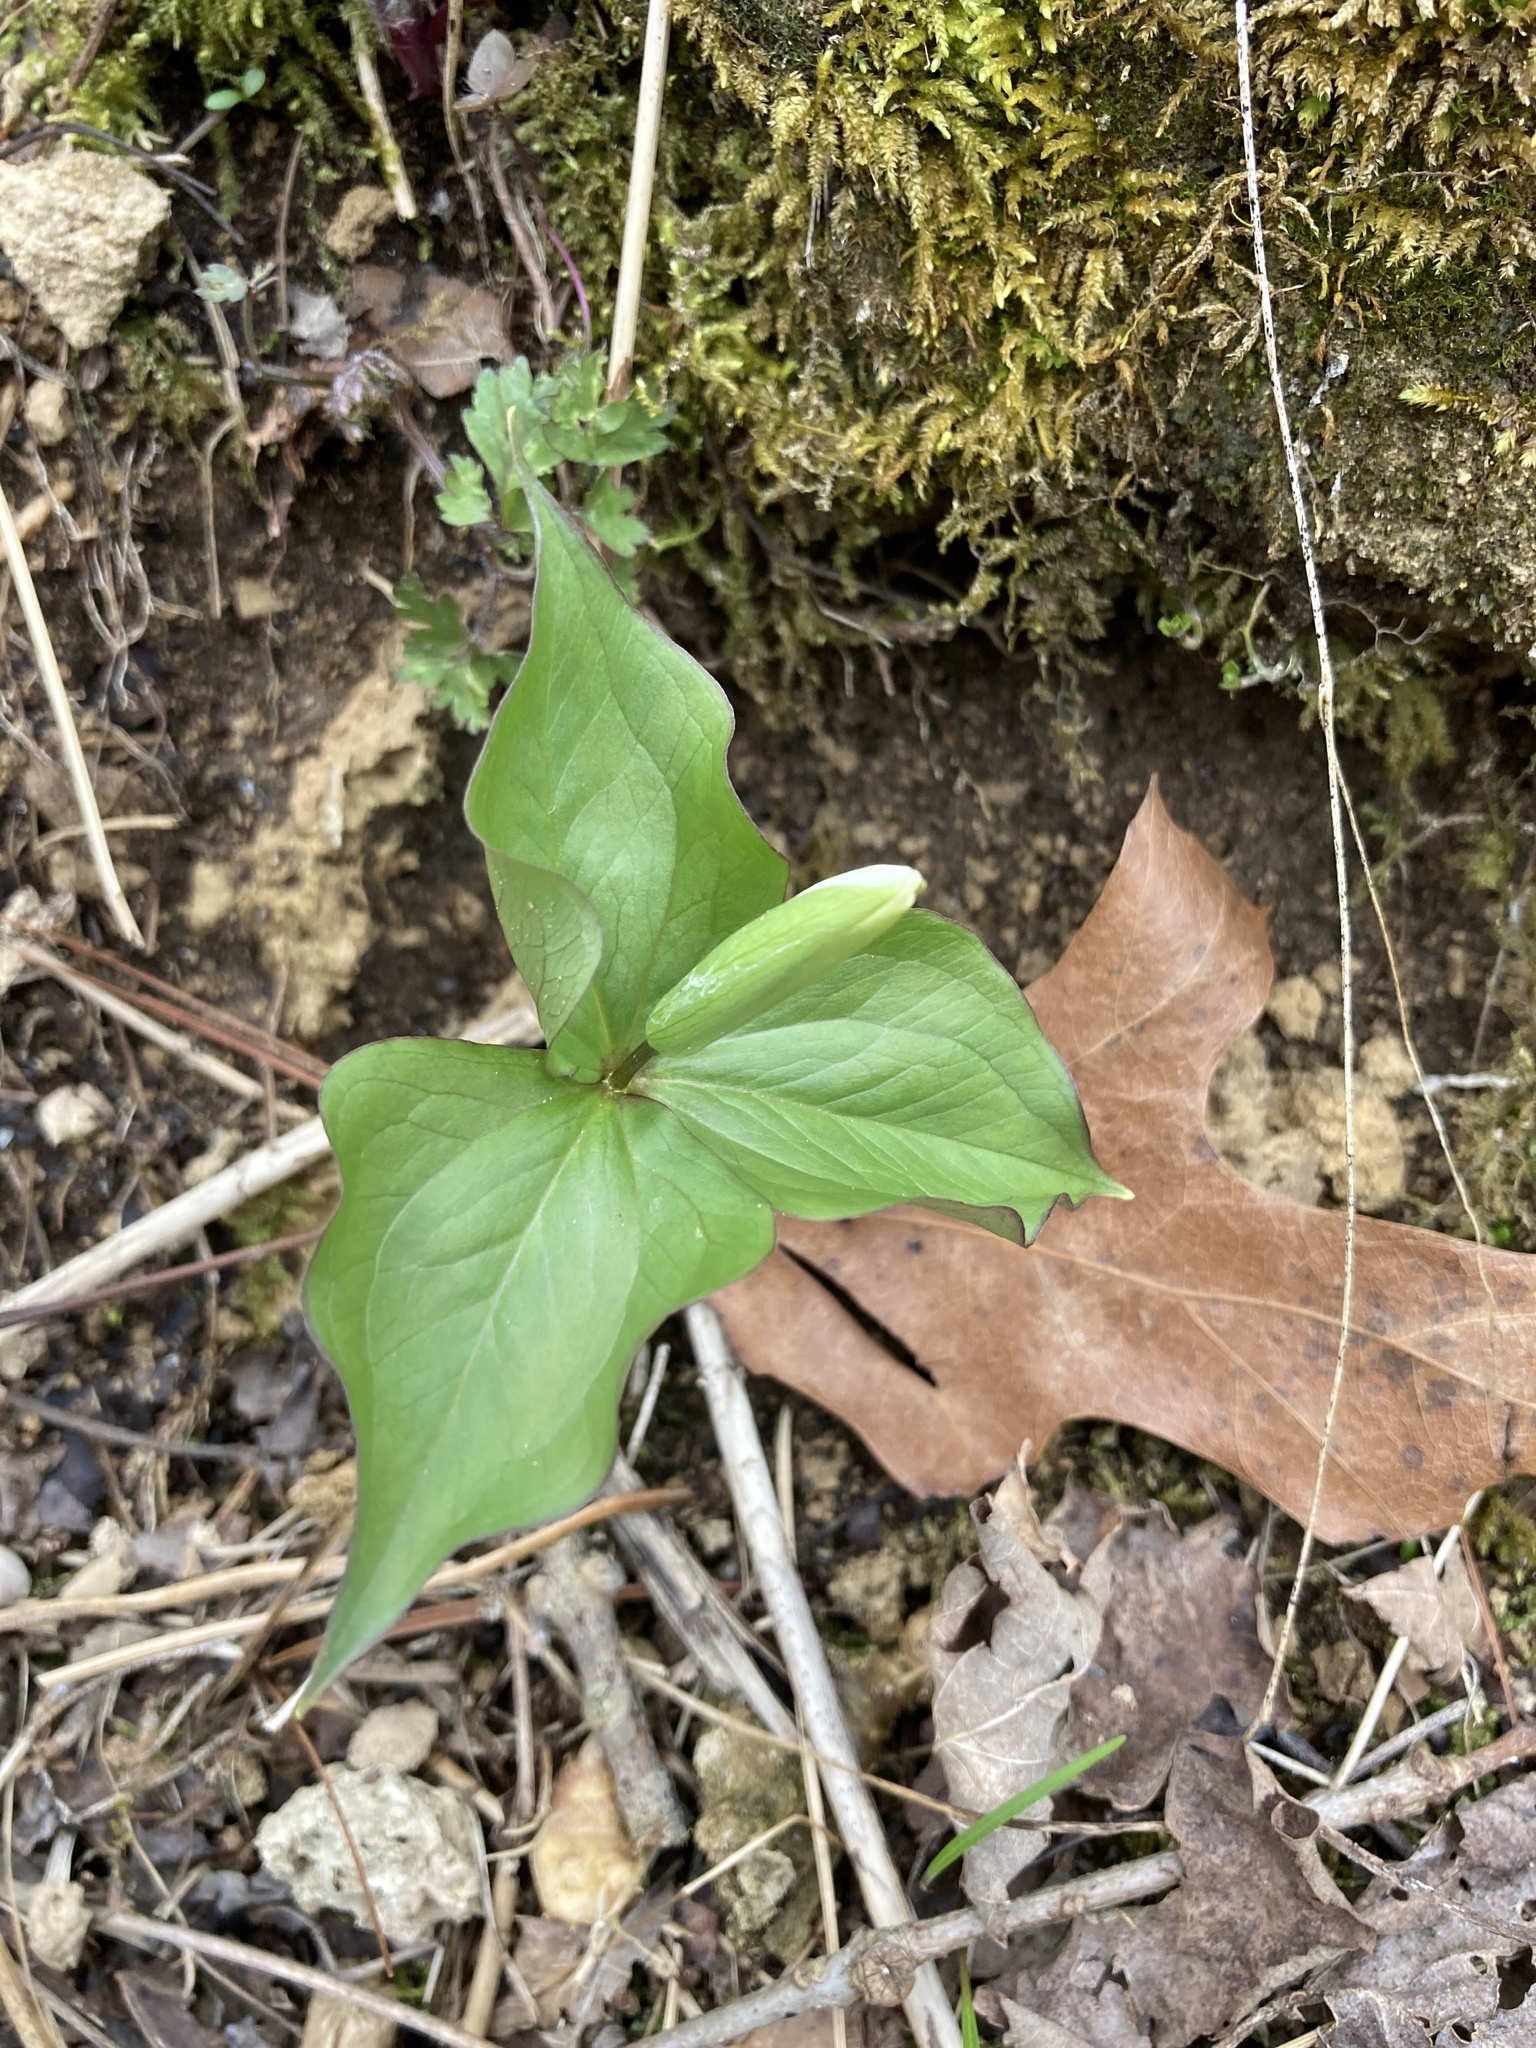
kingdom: Plantae
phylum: Tracheophyta
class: Liliopsida
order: Liliales
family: Melanthiaceae
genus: Trillium
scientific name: Trillium grandiflorum
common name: Great white trillium
